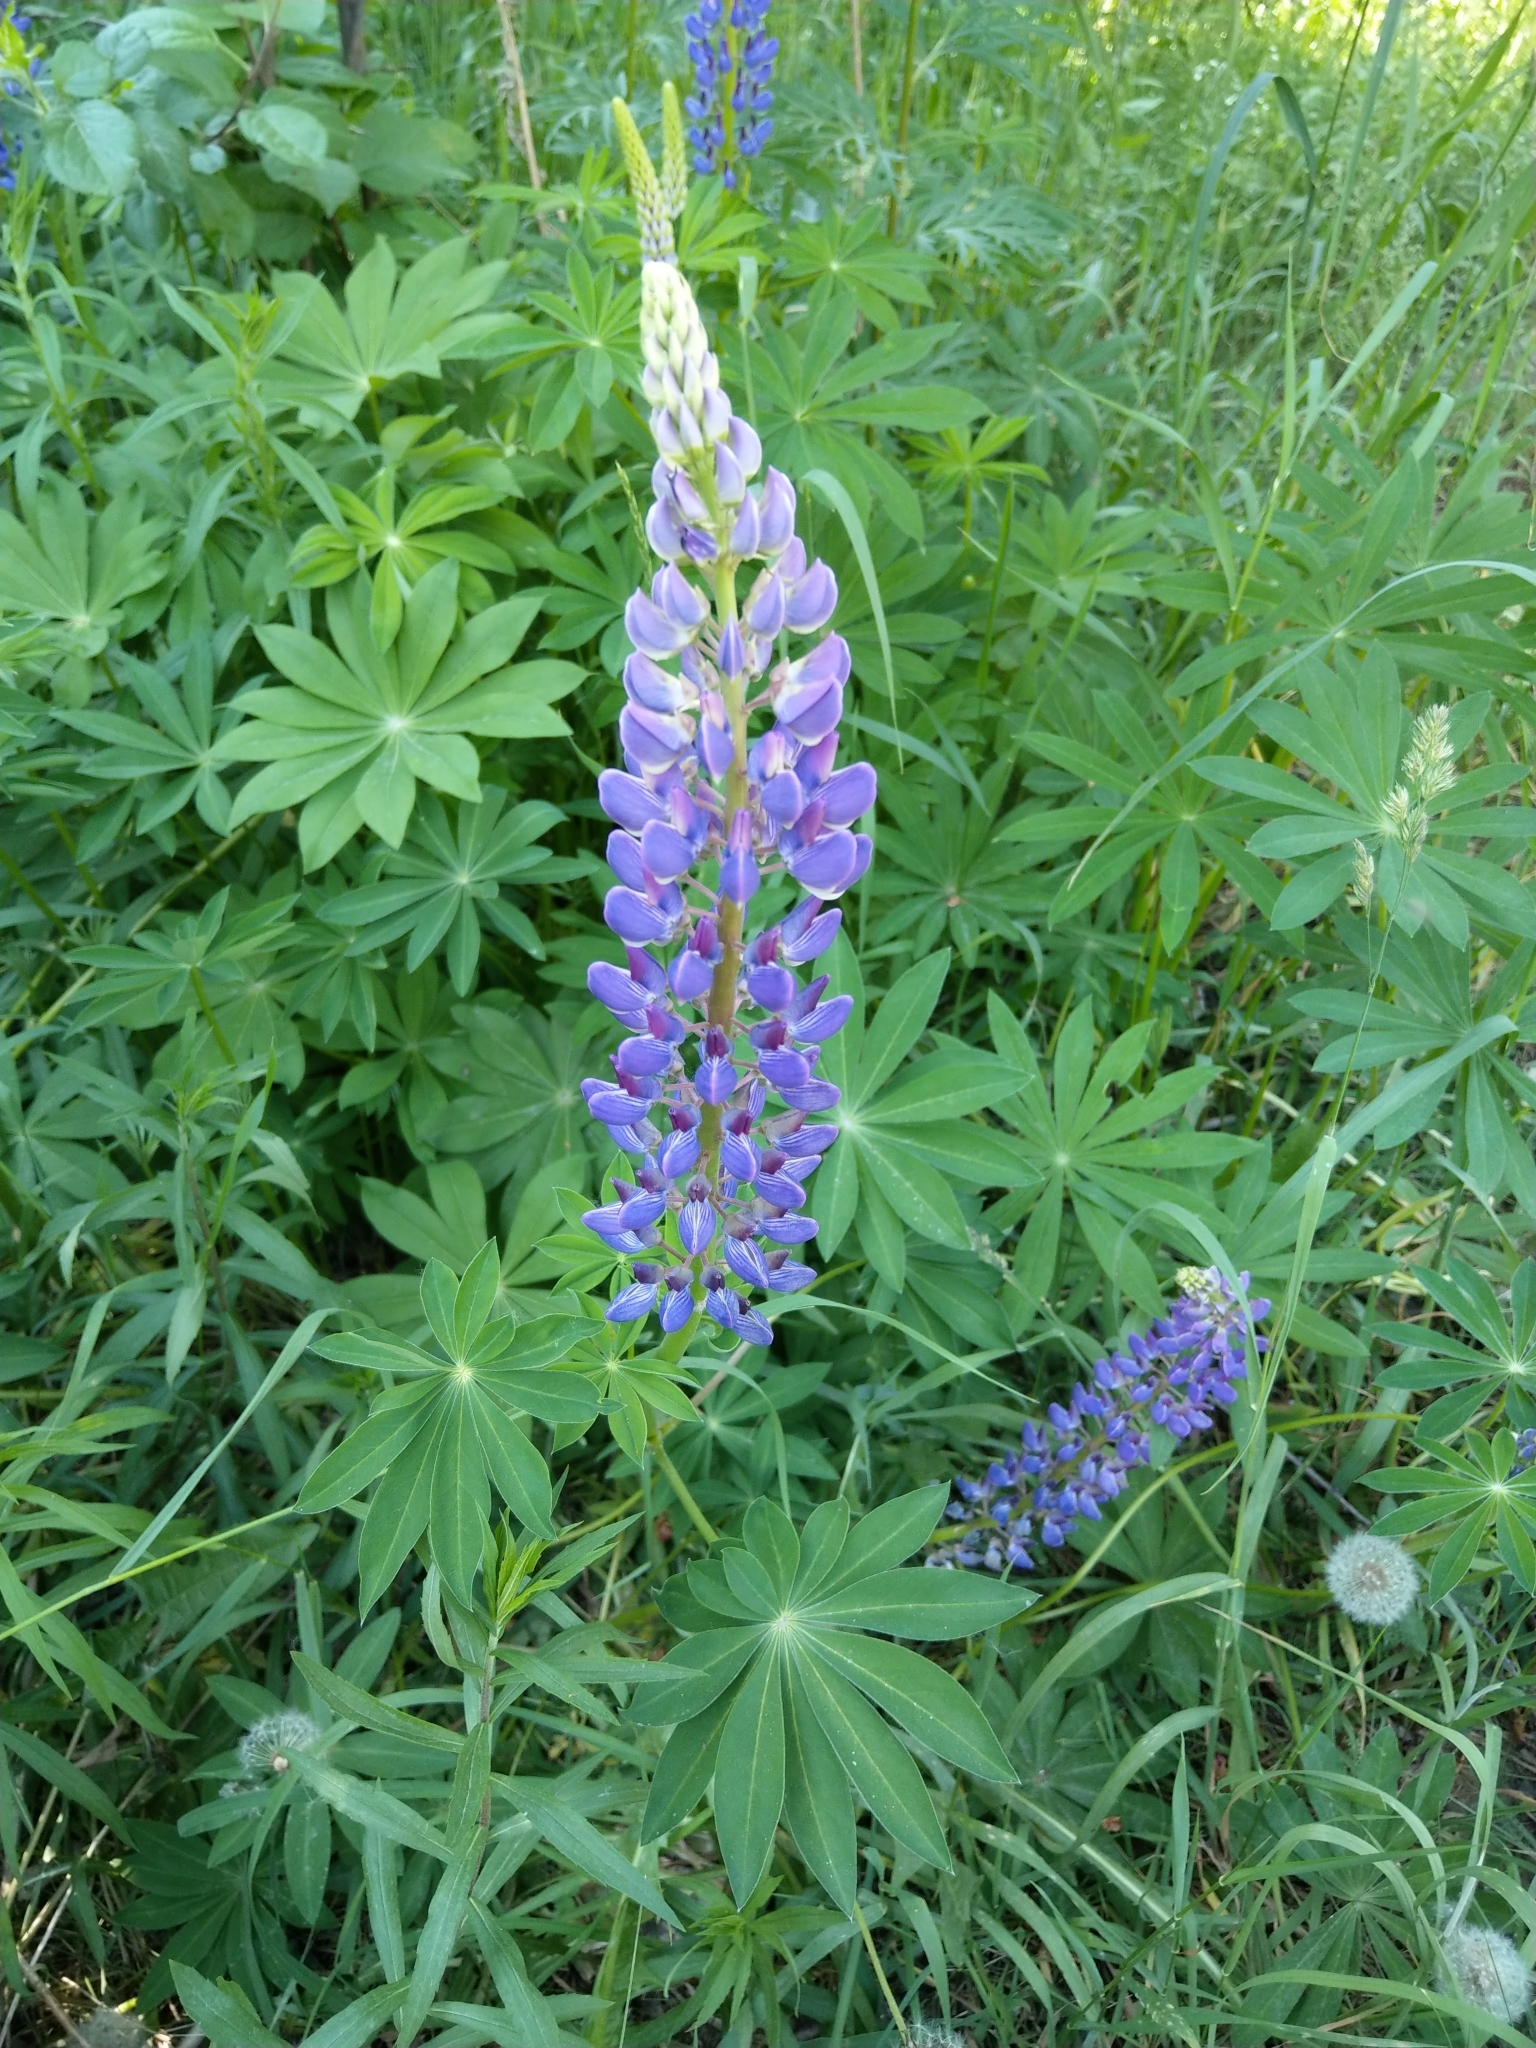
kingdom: Plantae
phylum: Tracheophyta
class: Magnoliopsida
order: Fabales
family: Fabaceae
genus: Lupinus
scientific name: Lupinus polyphyllus
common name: Garden lupin
